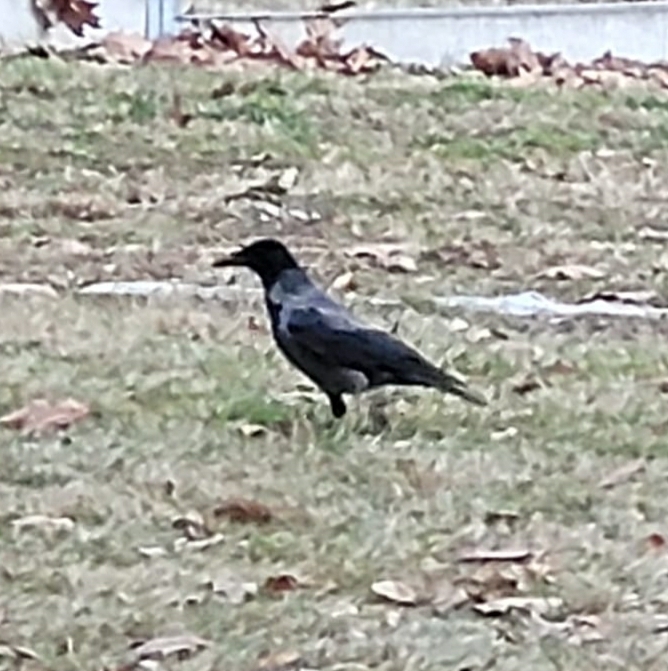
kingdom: Animalia
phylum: Chordata
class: Aves
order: Passeriformes
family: Corvidae
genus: Corvus
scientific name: Corvus
